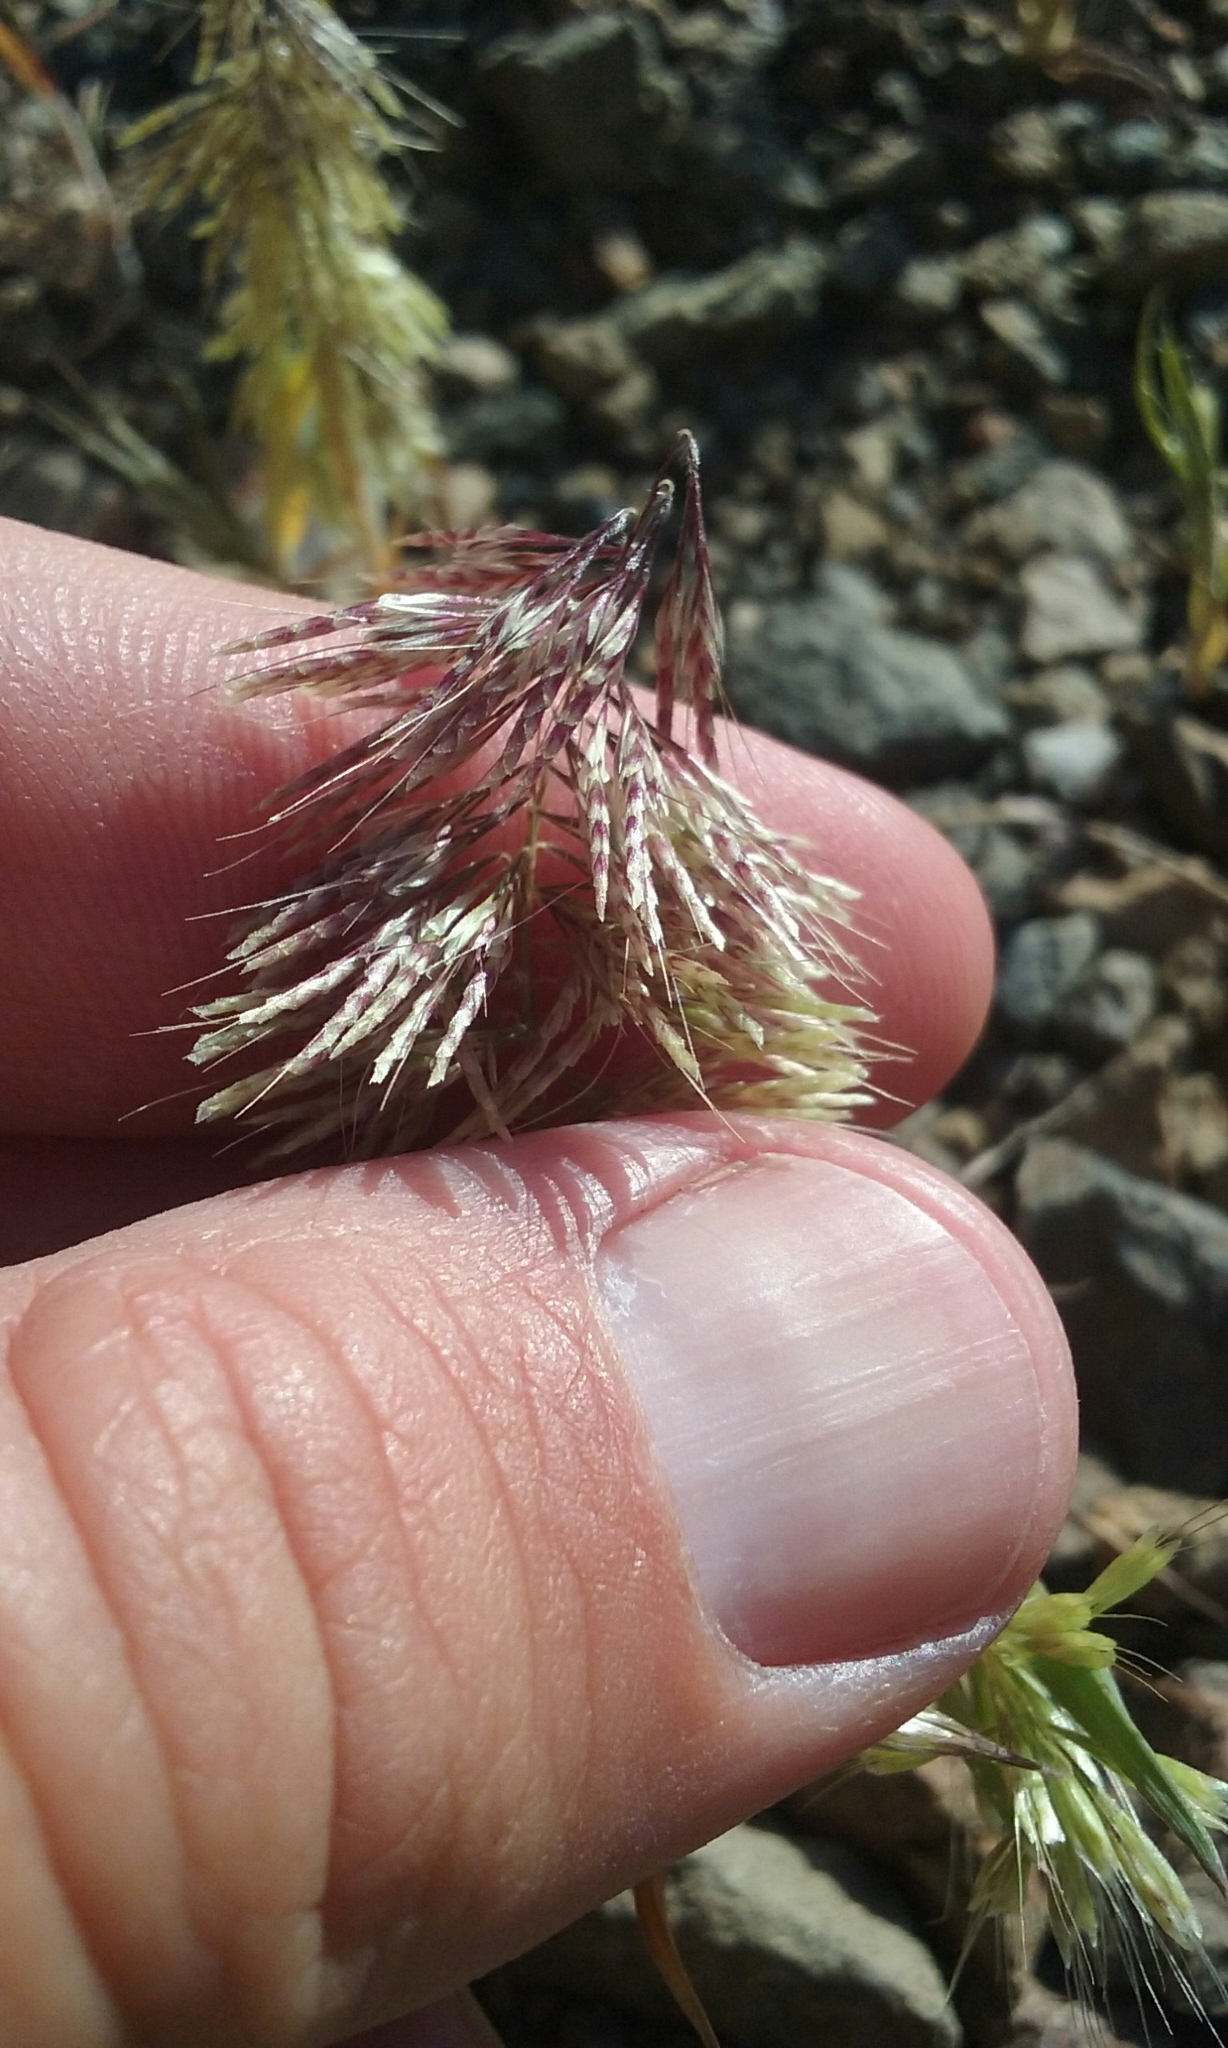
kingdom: Plantae
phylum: Tracheophyta
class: Liliopsida
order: Poales
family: Poaceae
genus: Lamarckia
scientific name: Lamarckia aurea
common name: Golden dog's-tail
